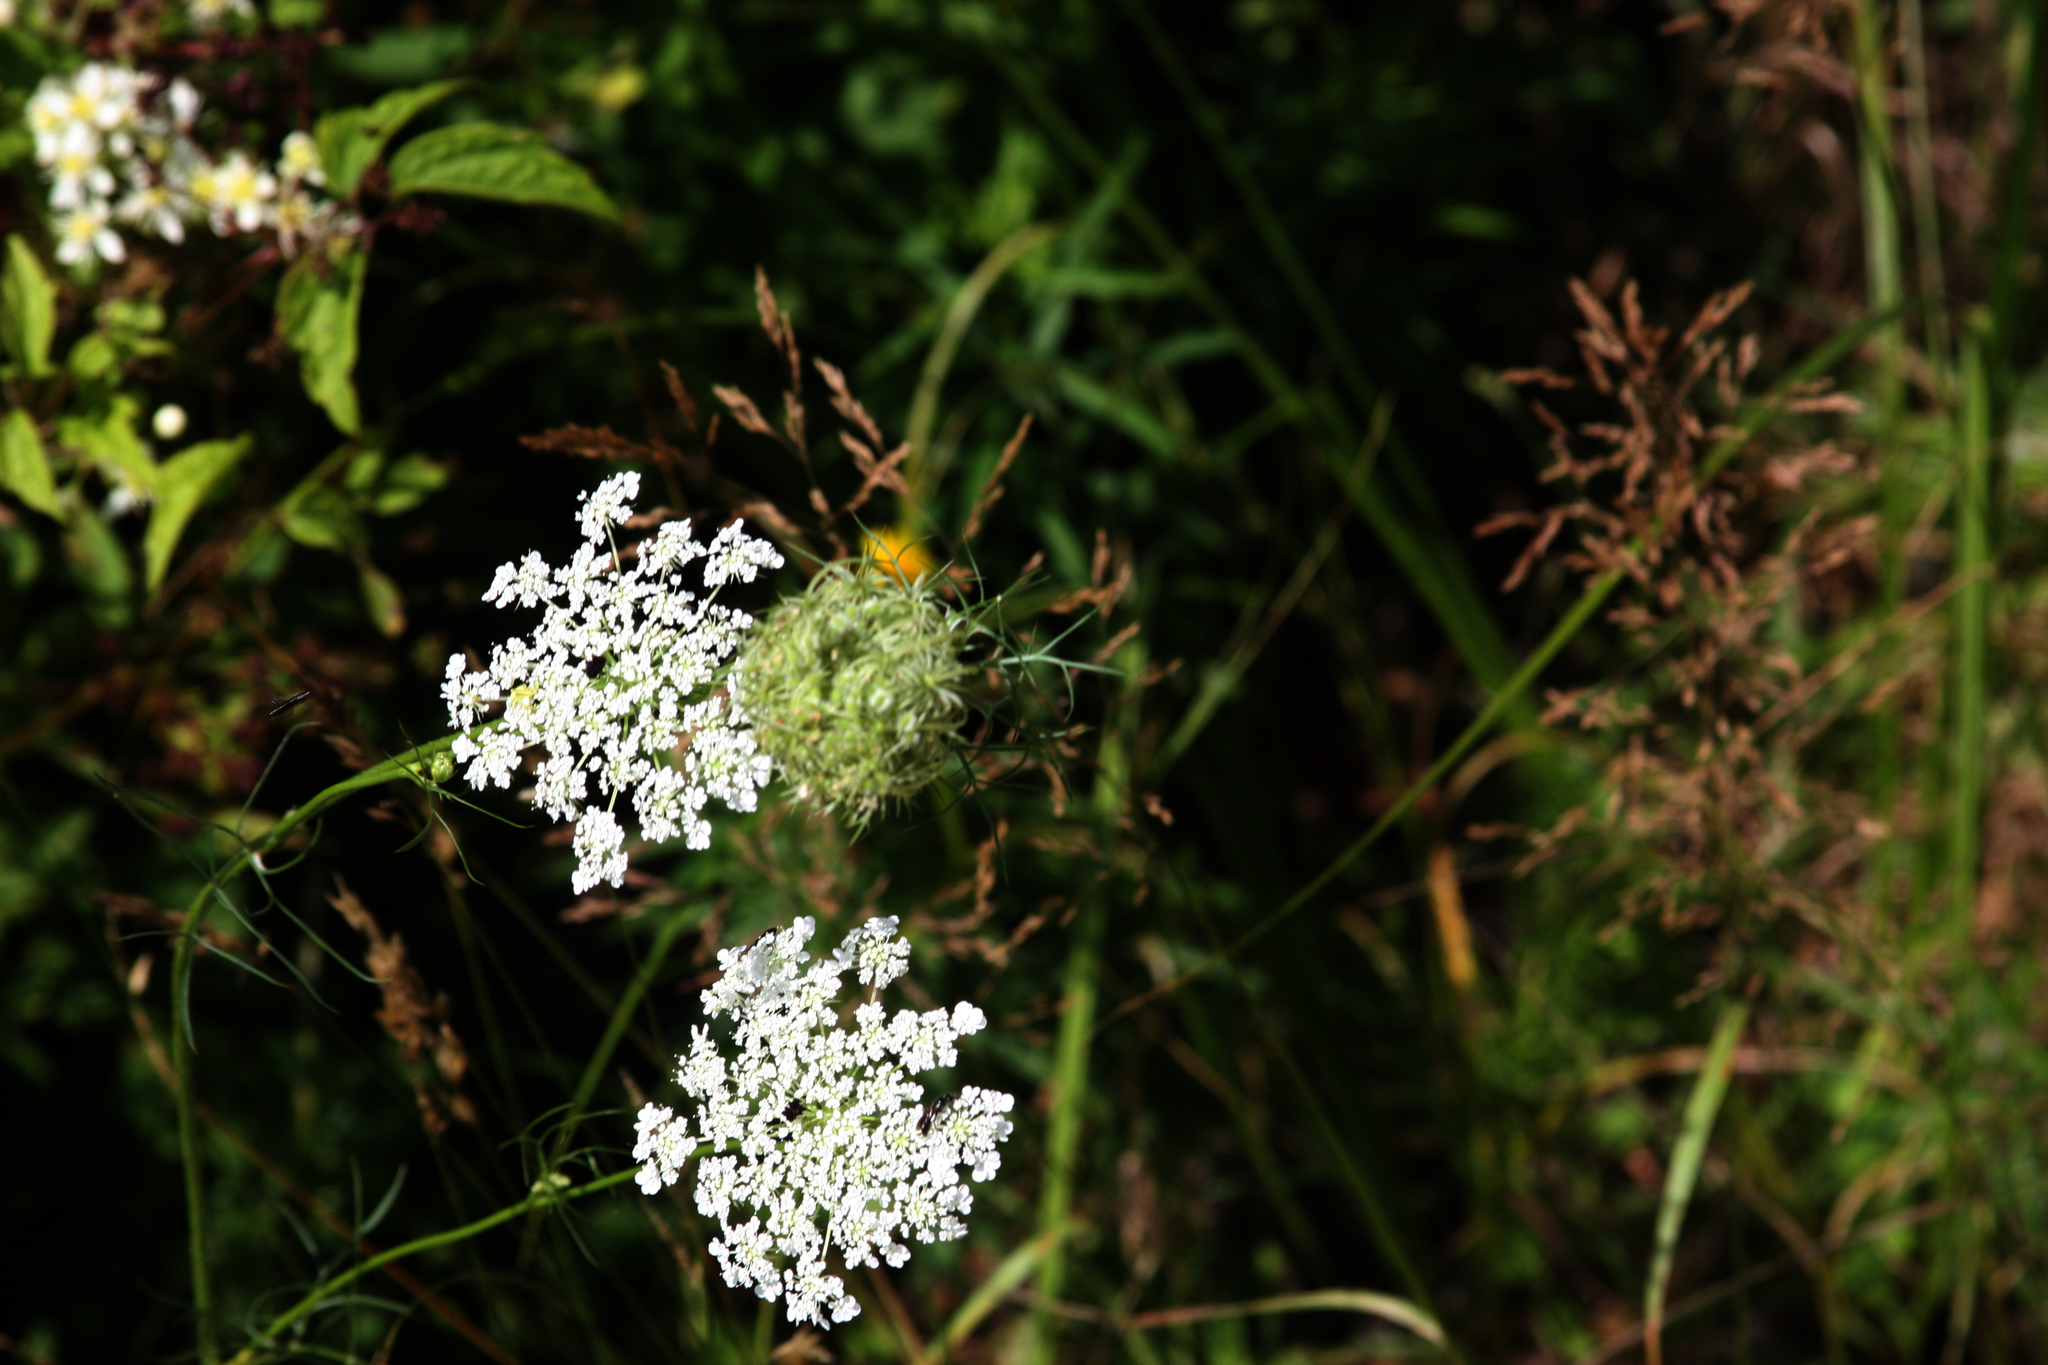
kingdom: Plantae
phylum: Tracheophyta
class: Magnoliopsida
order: Apiales
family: Apiaceae
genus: Daucus
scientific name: Daucus carota
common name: Wild carrot
